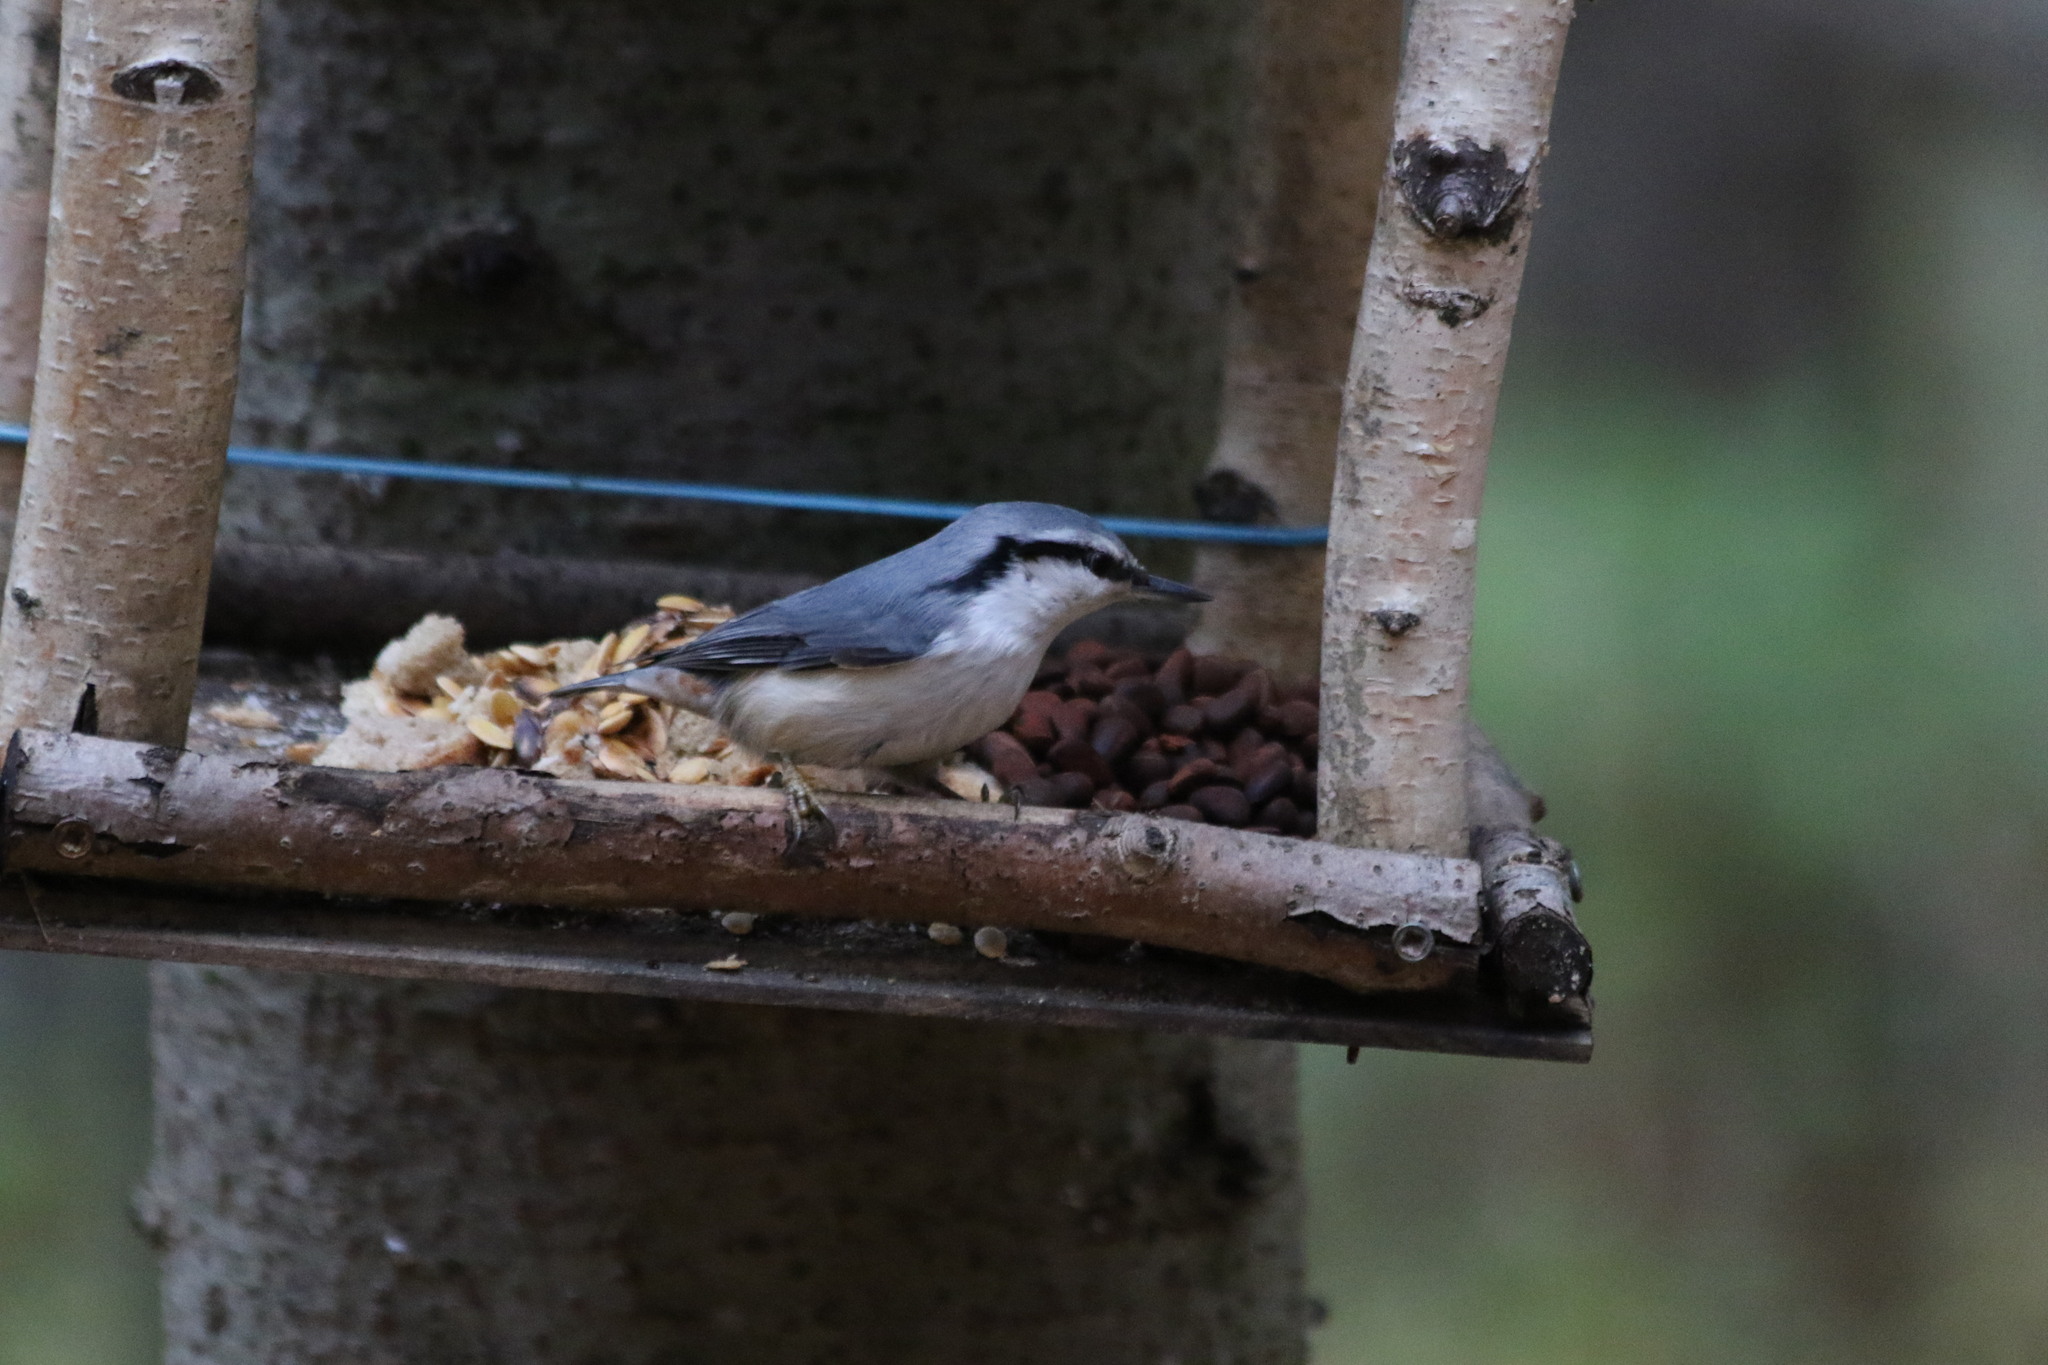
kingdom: Animalia
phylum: Chordata
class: Aves
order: Passeriformes
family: Sittidae
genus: Sitta
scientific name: Sitta europaea
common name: Eurasian nuthatch
